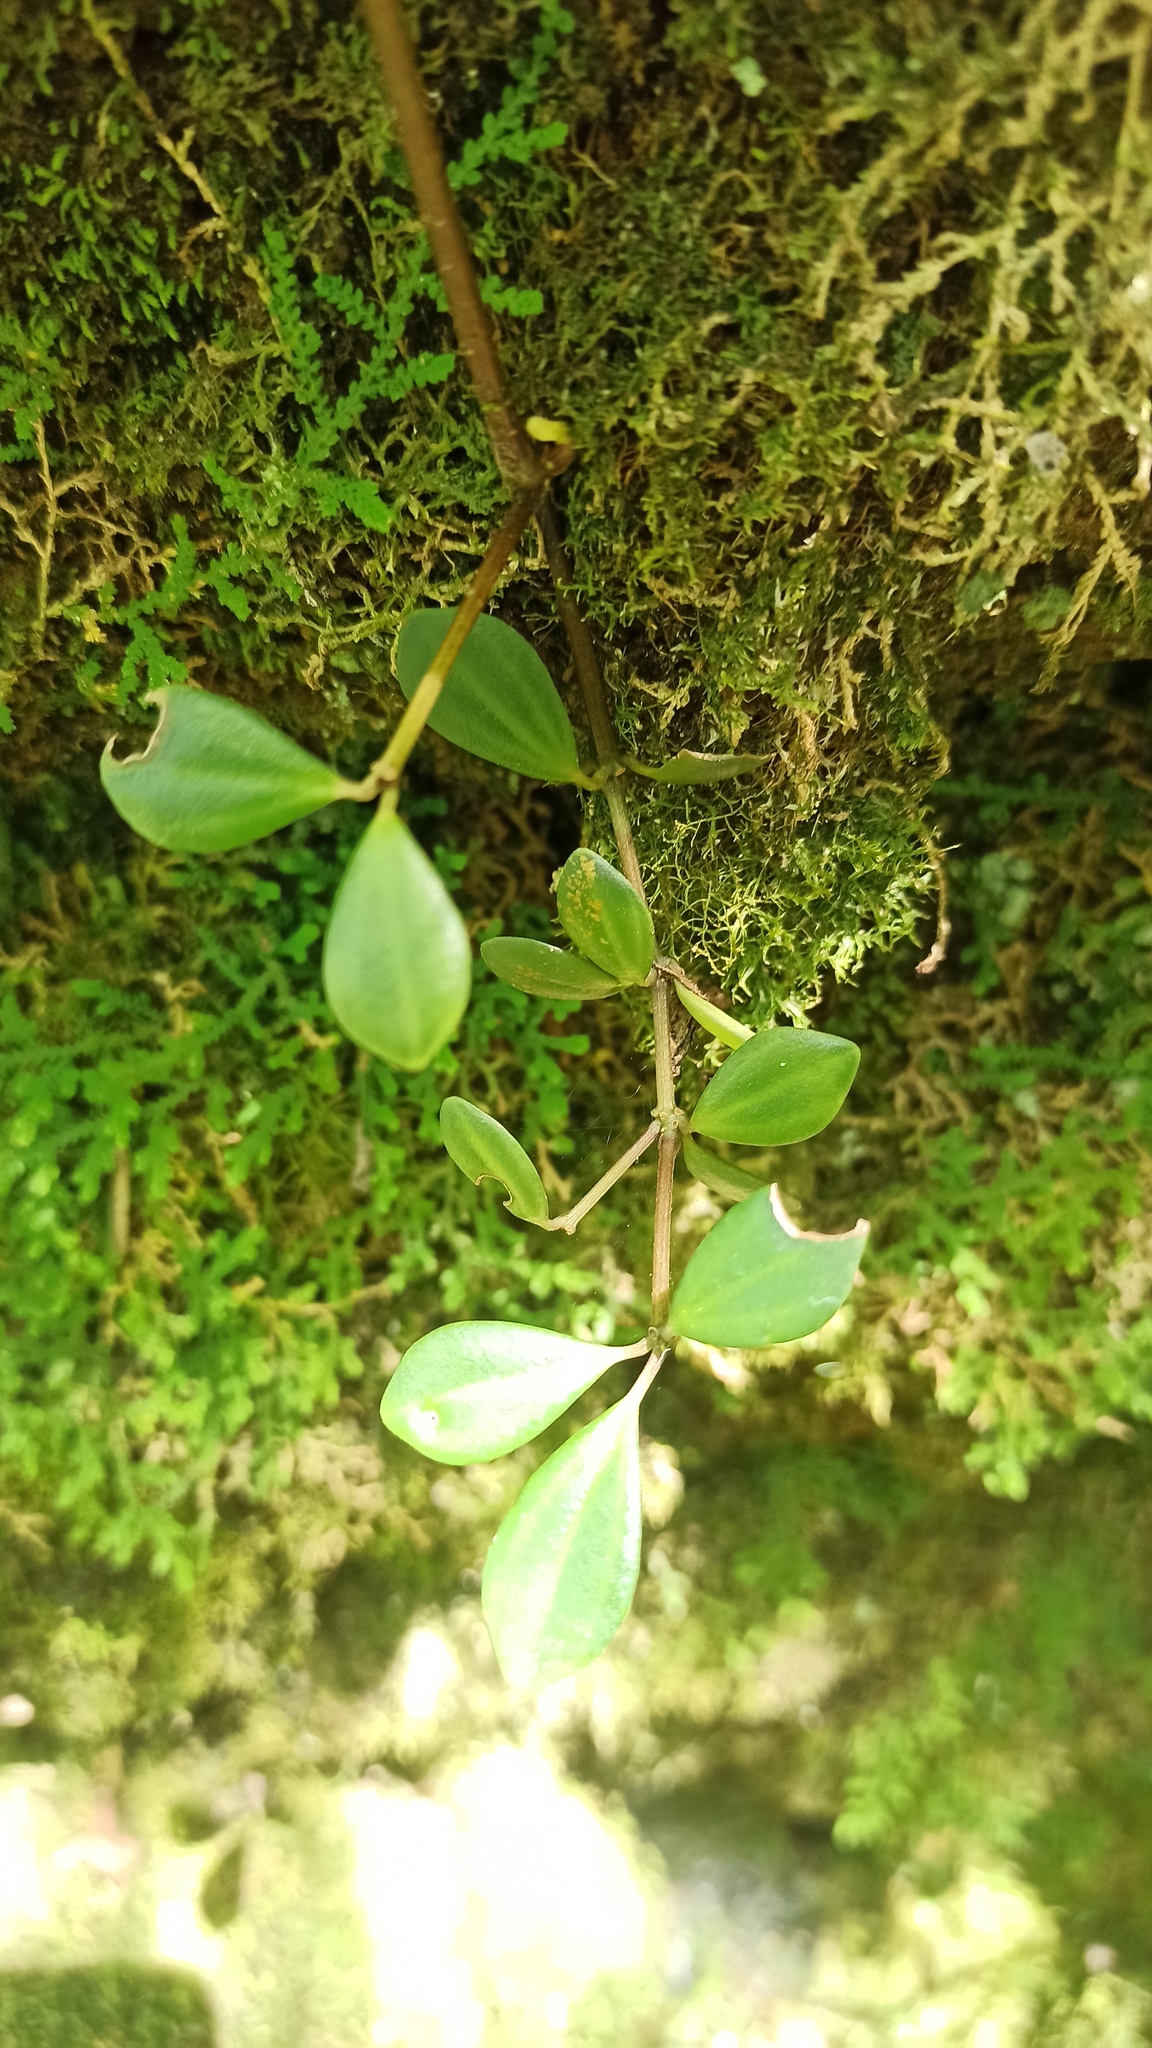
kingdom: Plantae
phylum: Tracheophyta
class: Magnoliopsida
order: Piperales
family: Piperaceae
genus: Peperomia
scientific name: Peperomia tetraphylla
